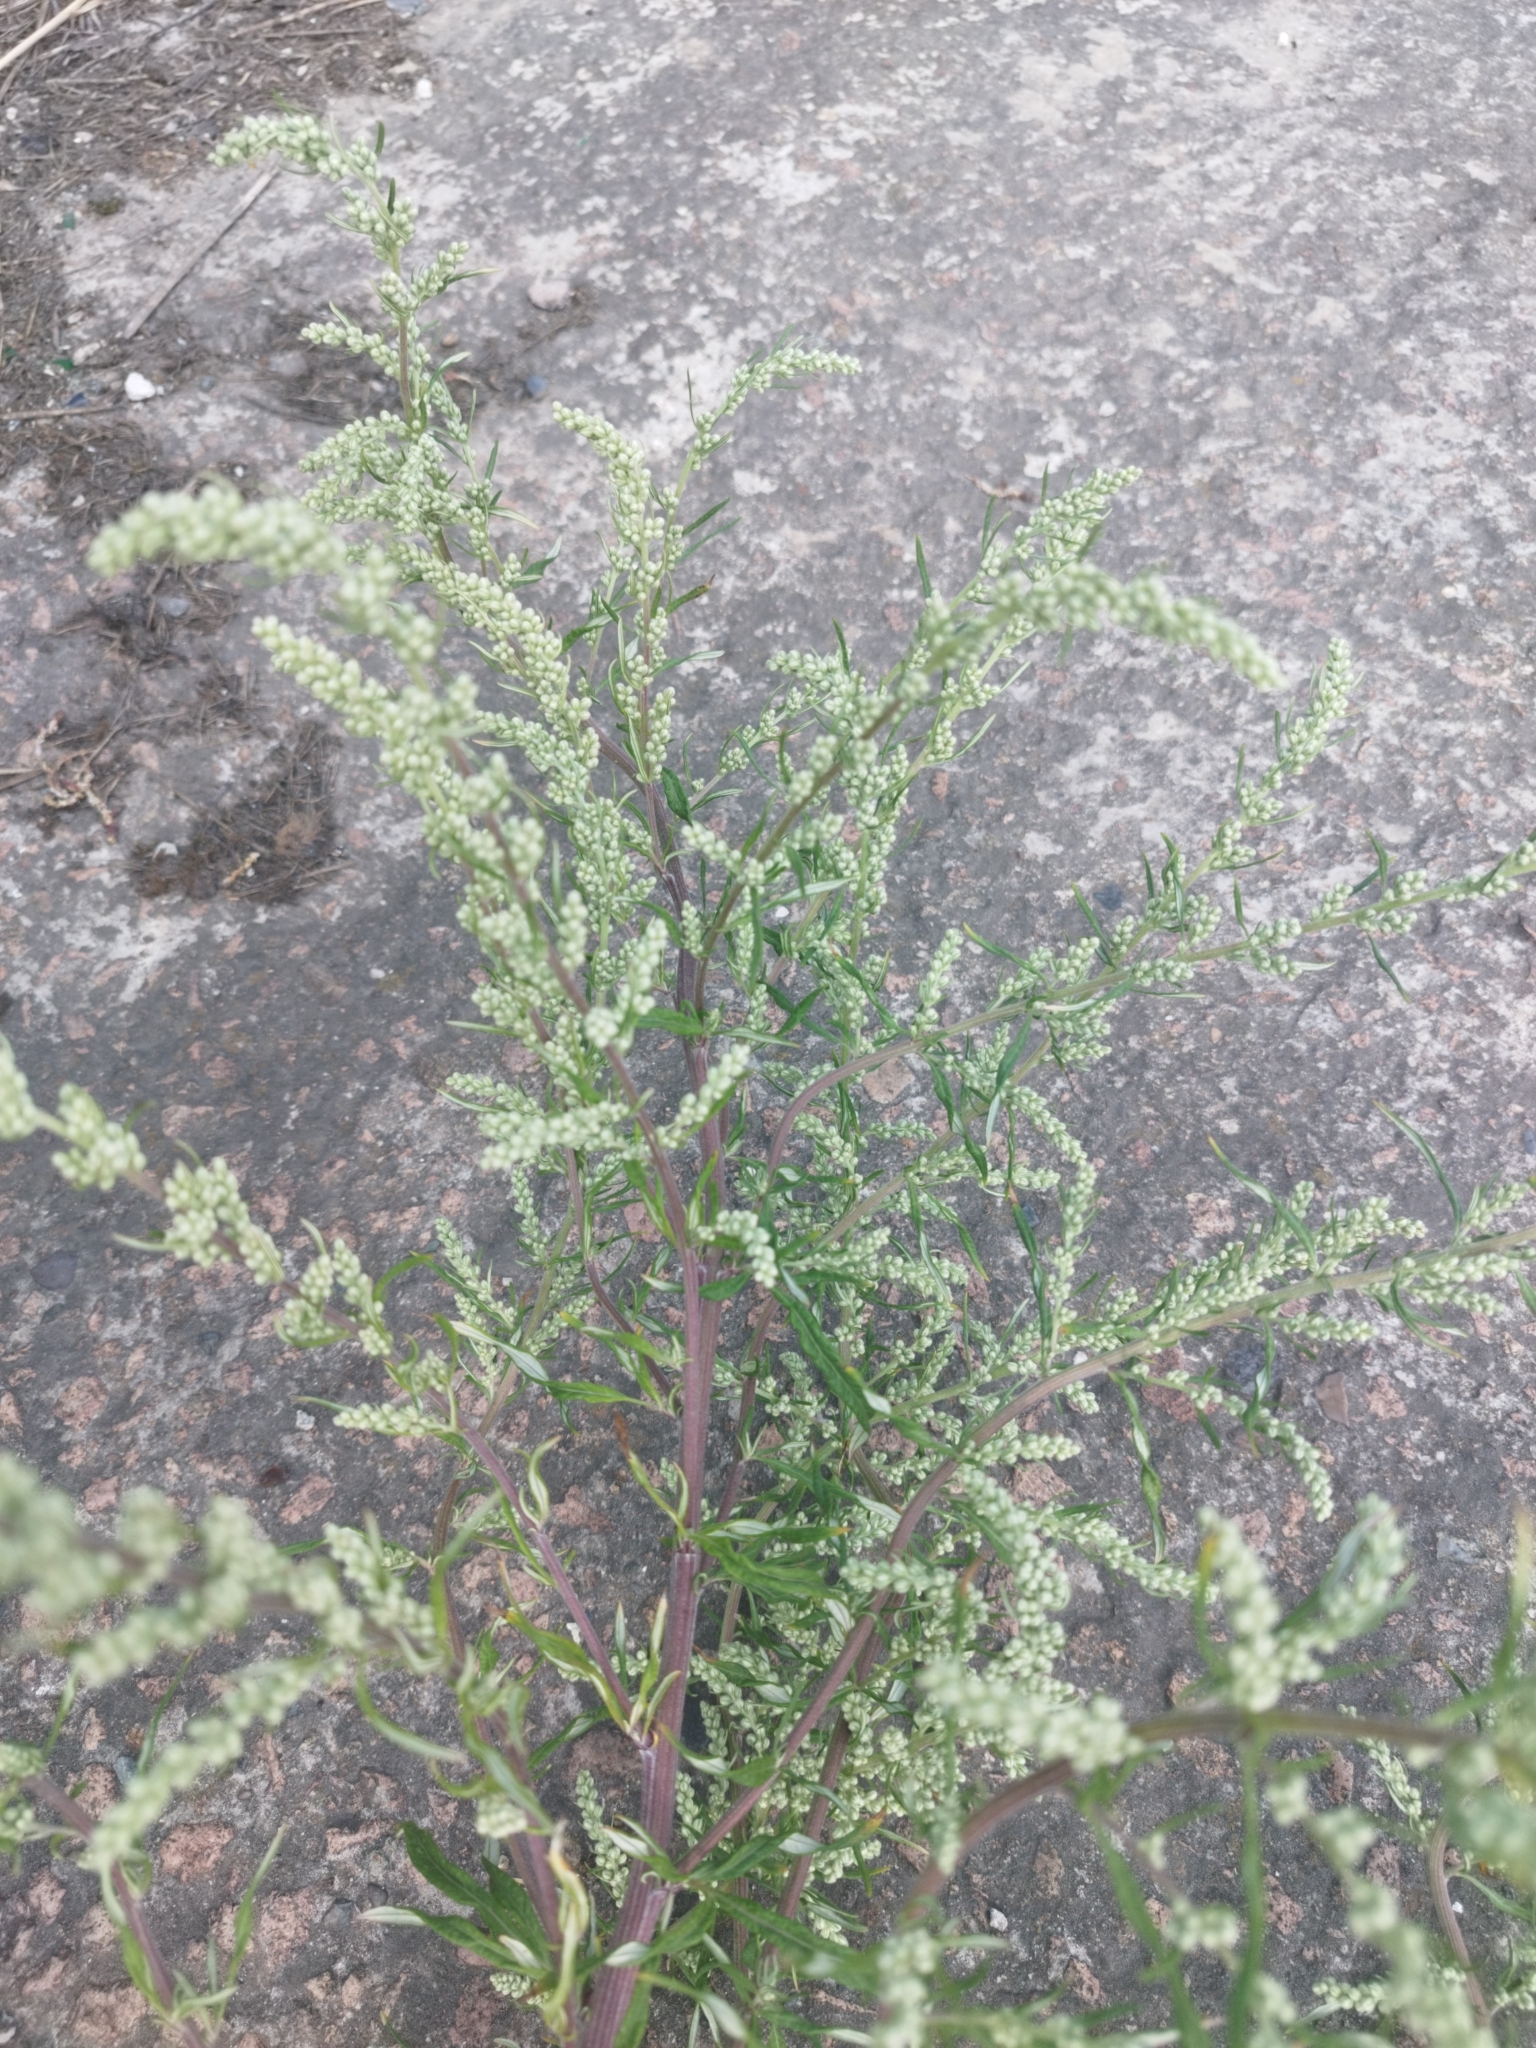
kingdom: Plantae
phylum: Tracheophyta
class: Magnoliopsida
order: Asterales
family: Asteraceae
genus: Artemisia
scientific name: Artemisia vulgaris
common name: Mugwort
